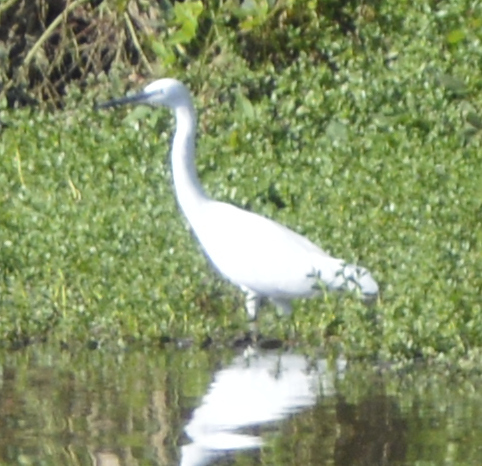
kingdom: Animalia
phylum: Chordata
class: Aves
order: Pelecaniformes
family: Ardeidae
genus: Egretta
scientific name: Egretta garzetta
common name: Little egret
